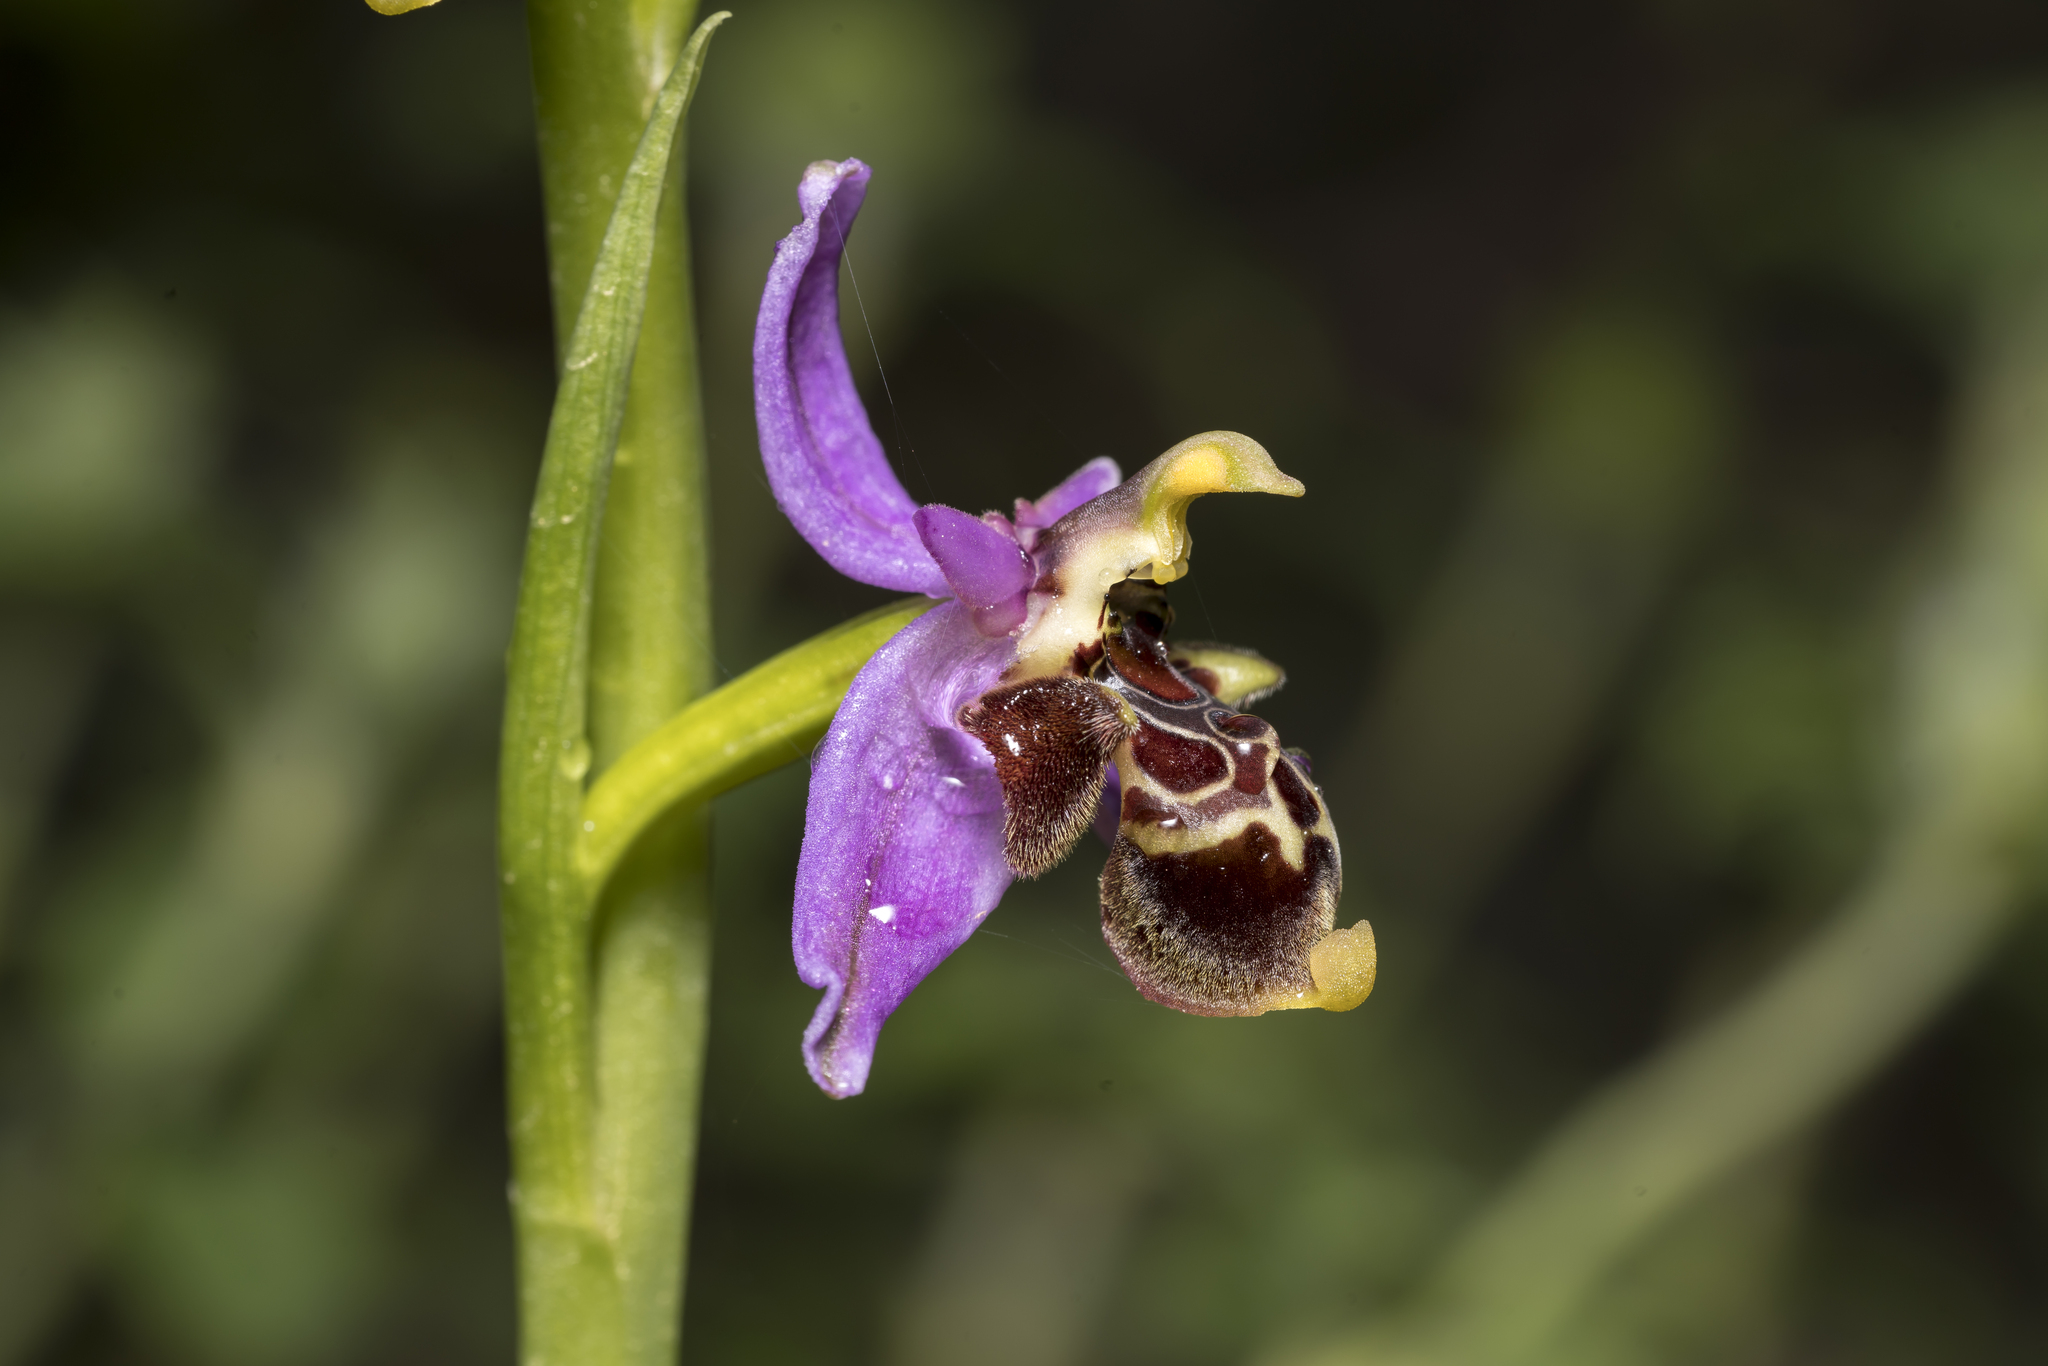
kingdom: Plantae
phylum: Tracheophyta
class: Liliopsida
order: Asparagales
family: Orchidaceae
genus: Ophrys
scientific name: Ophrys
